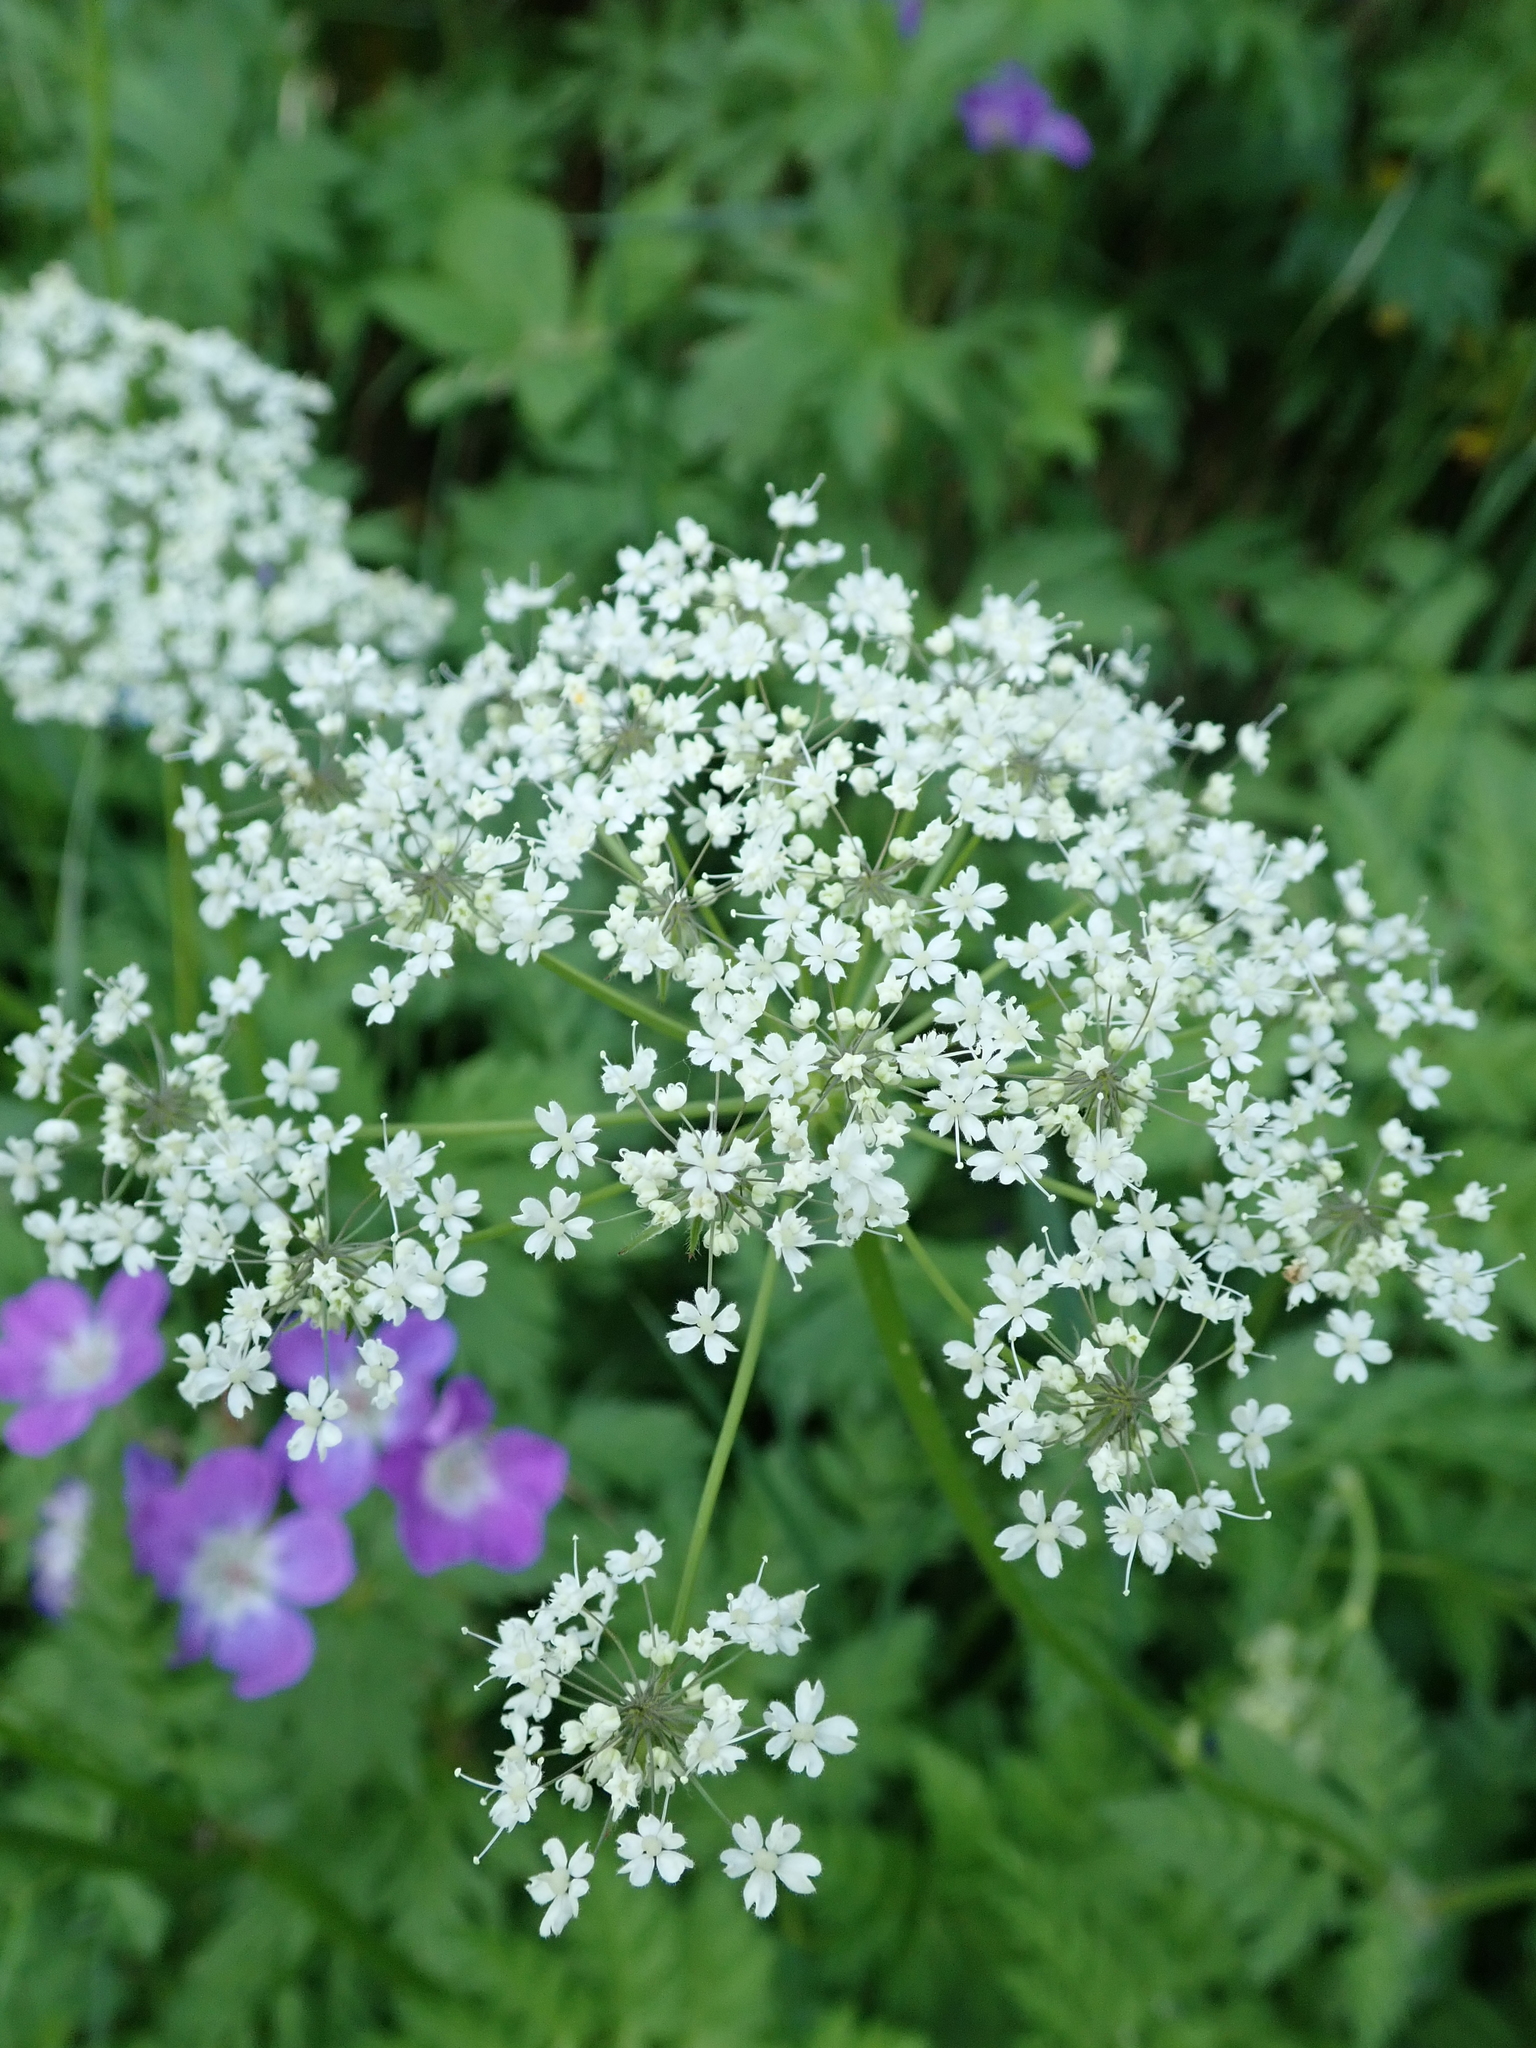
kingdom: Plantae
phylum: Tracheophyta
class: Magnoliopsida
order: Apiales
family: Apiaceae
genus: Chaerophyllum
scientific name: Chaerophyllum villarsii
